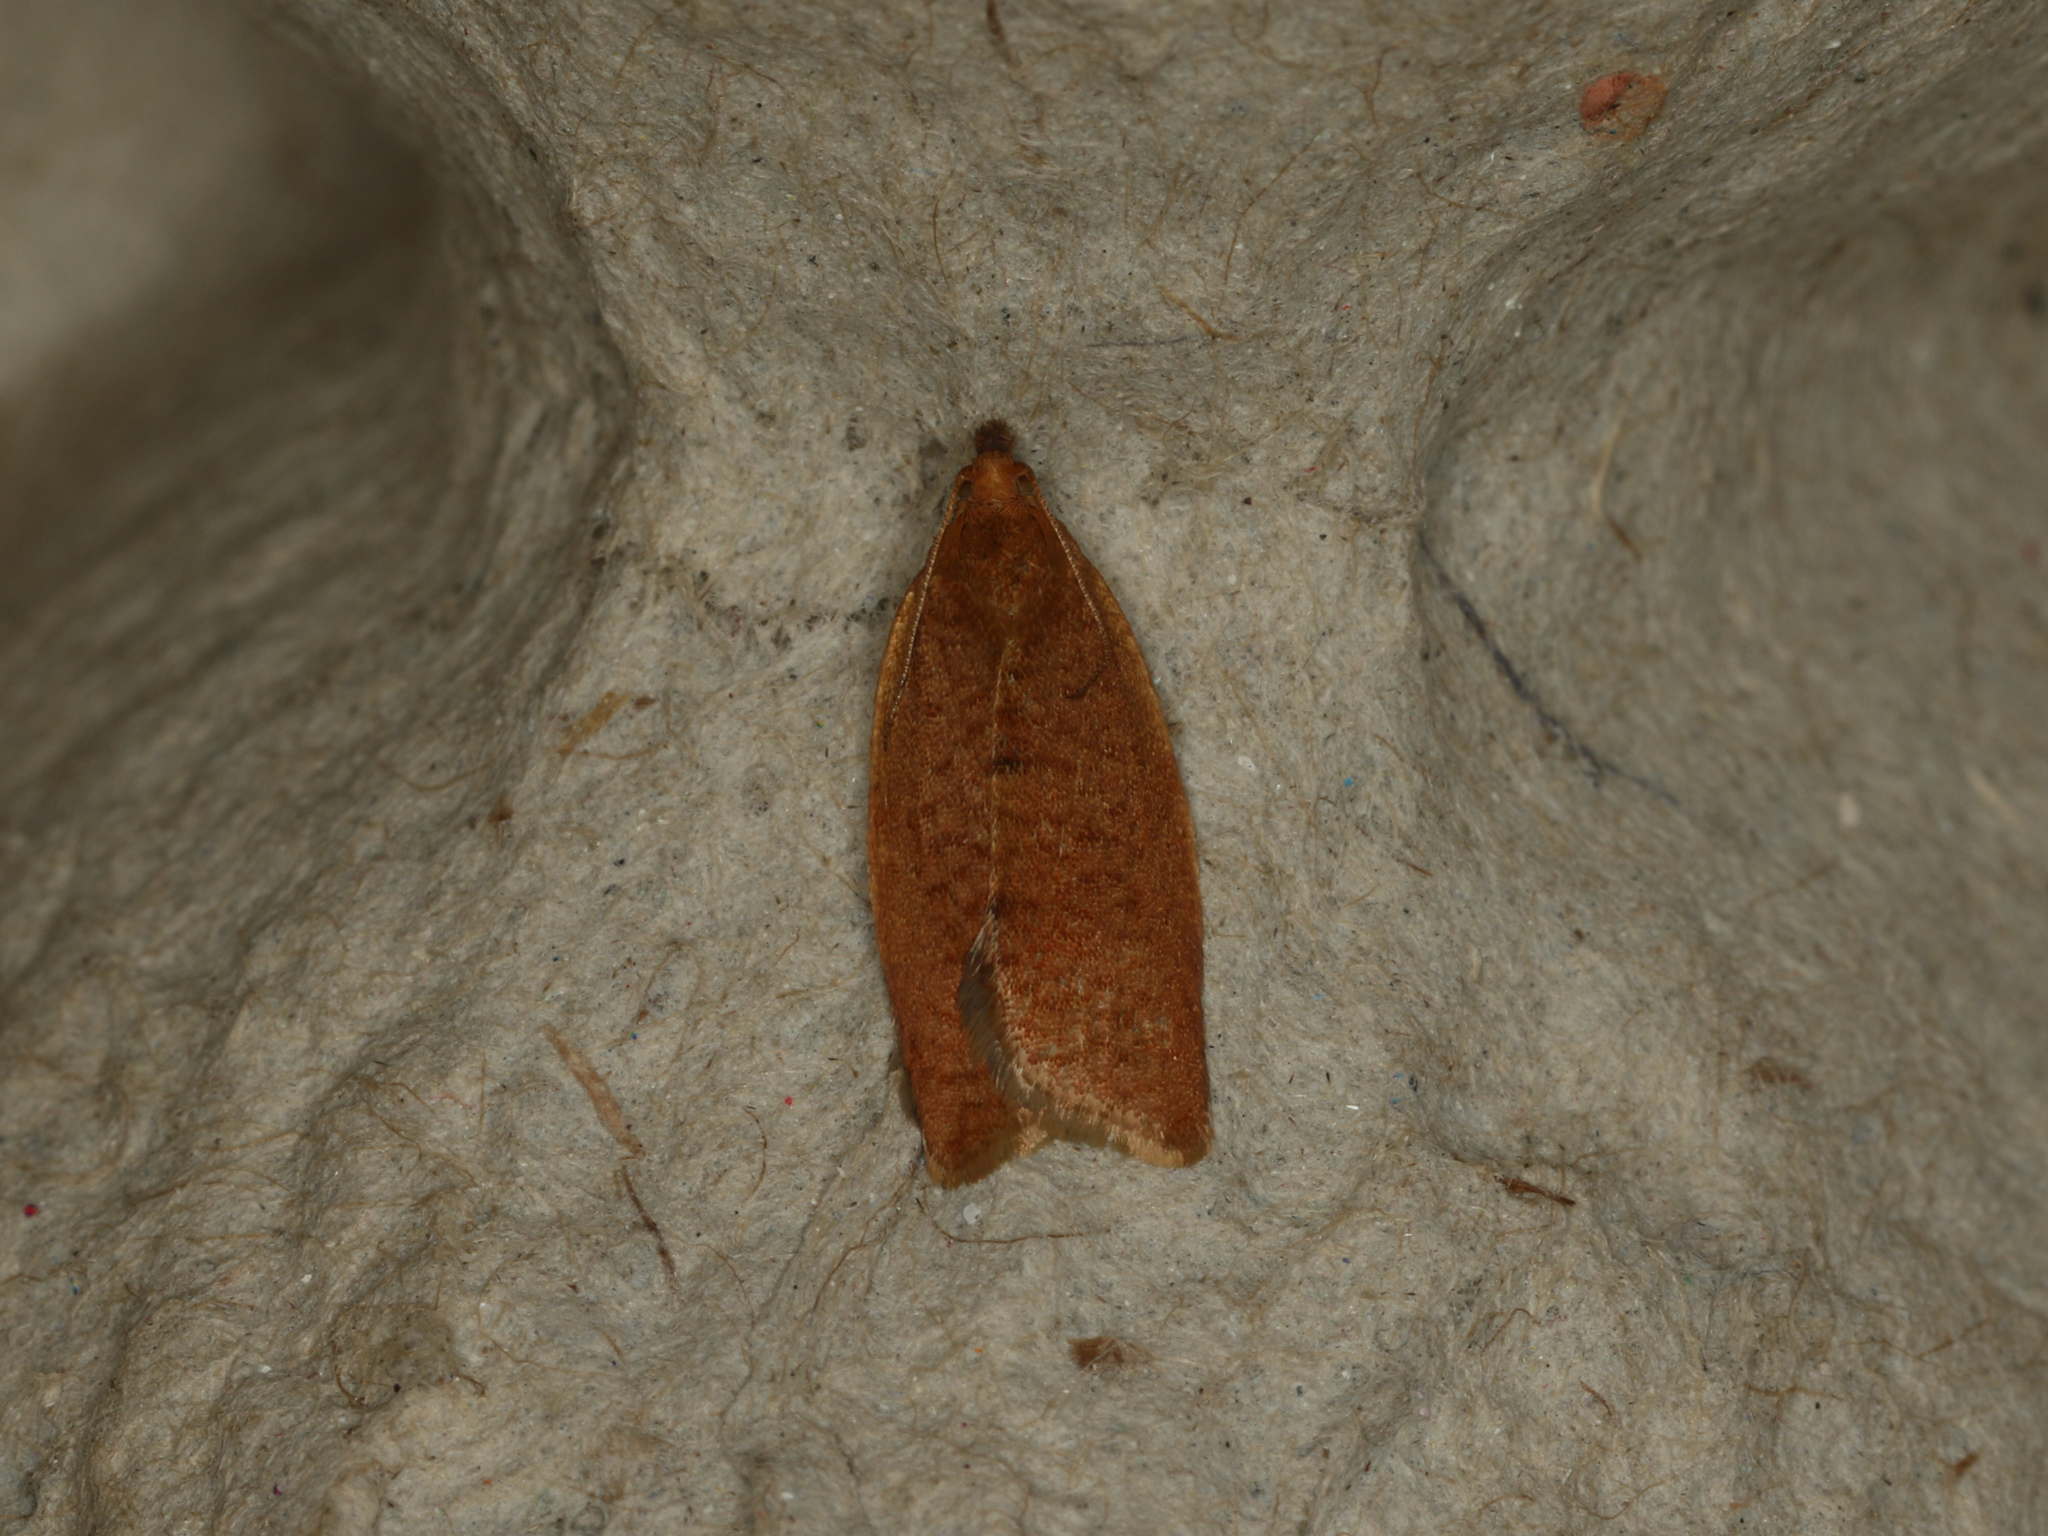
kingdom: Animalia
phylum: Arthropoda
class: Insecta
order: Lepidoptera
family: Tortricidae
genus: Clepsis
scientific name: Clepsis consimilana
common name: Privet tortrix
